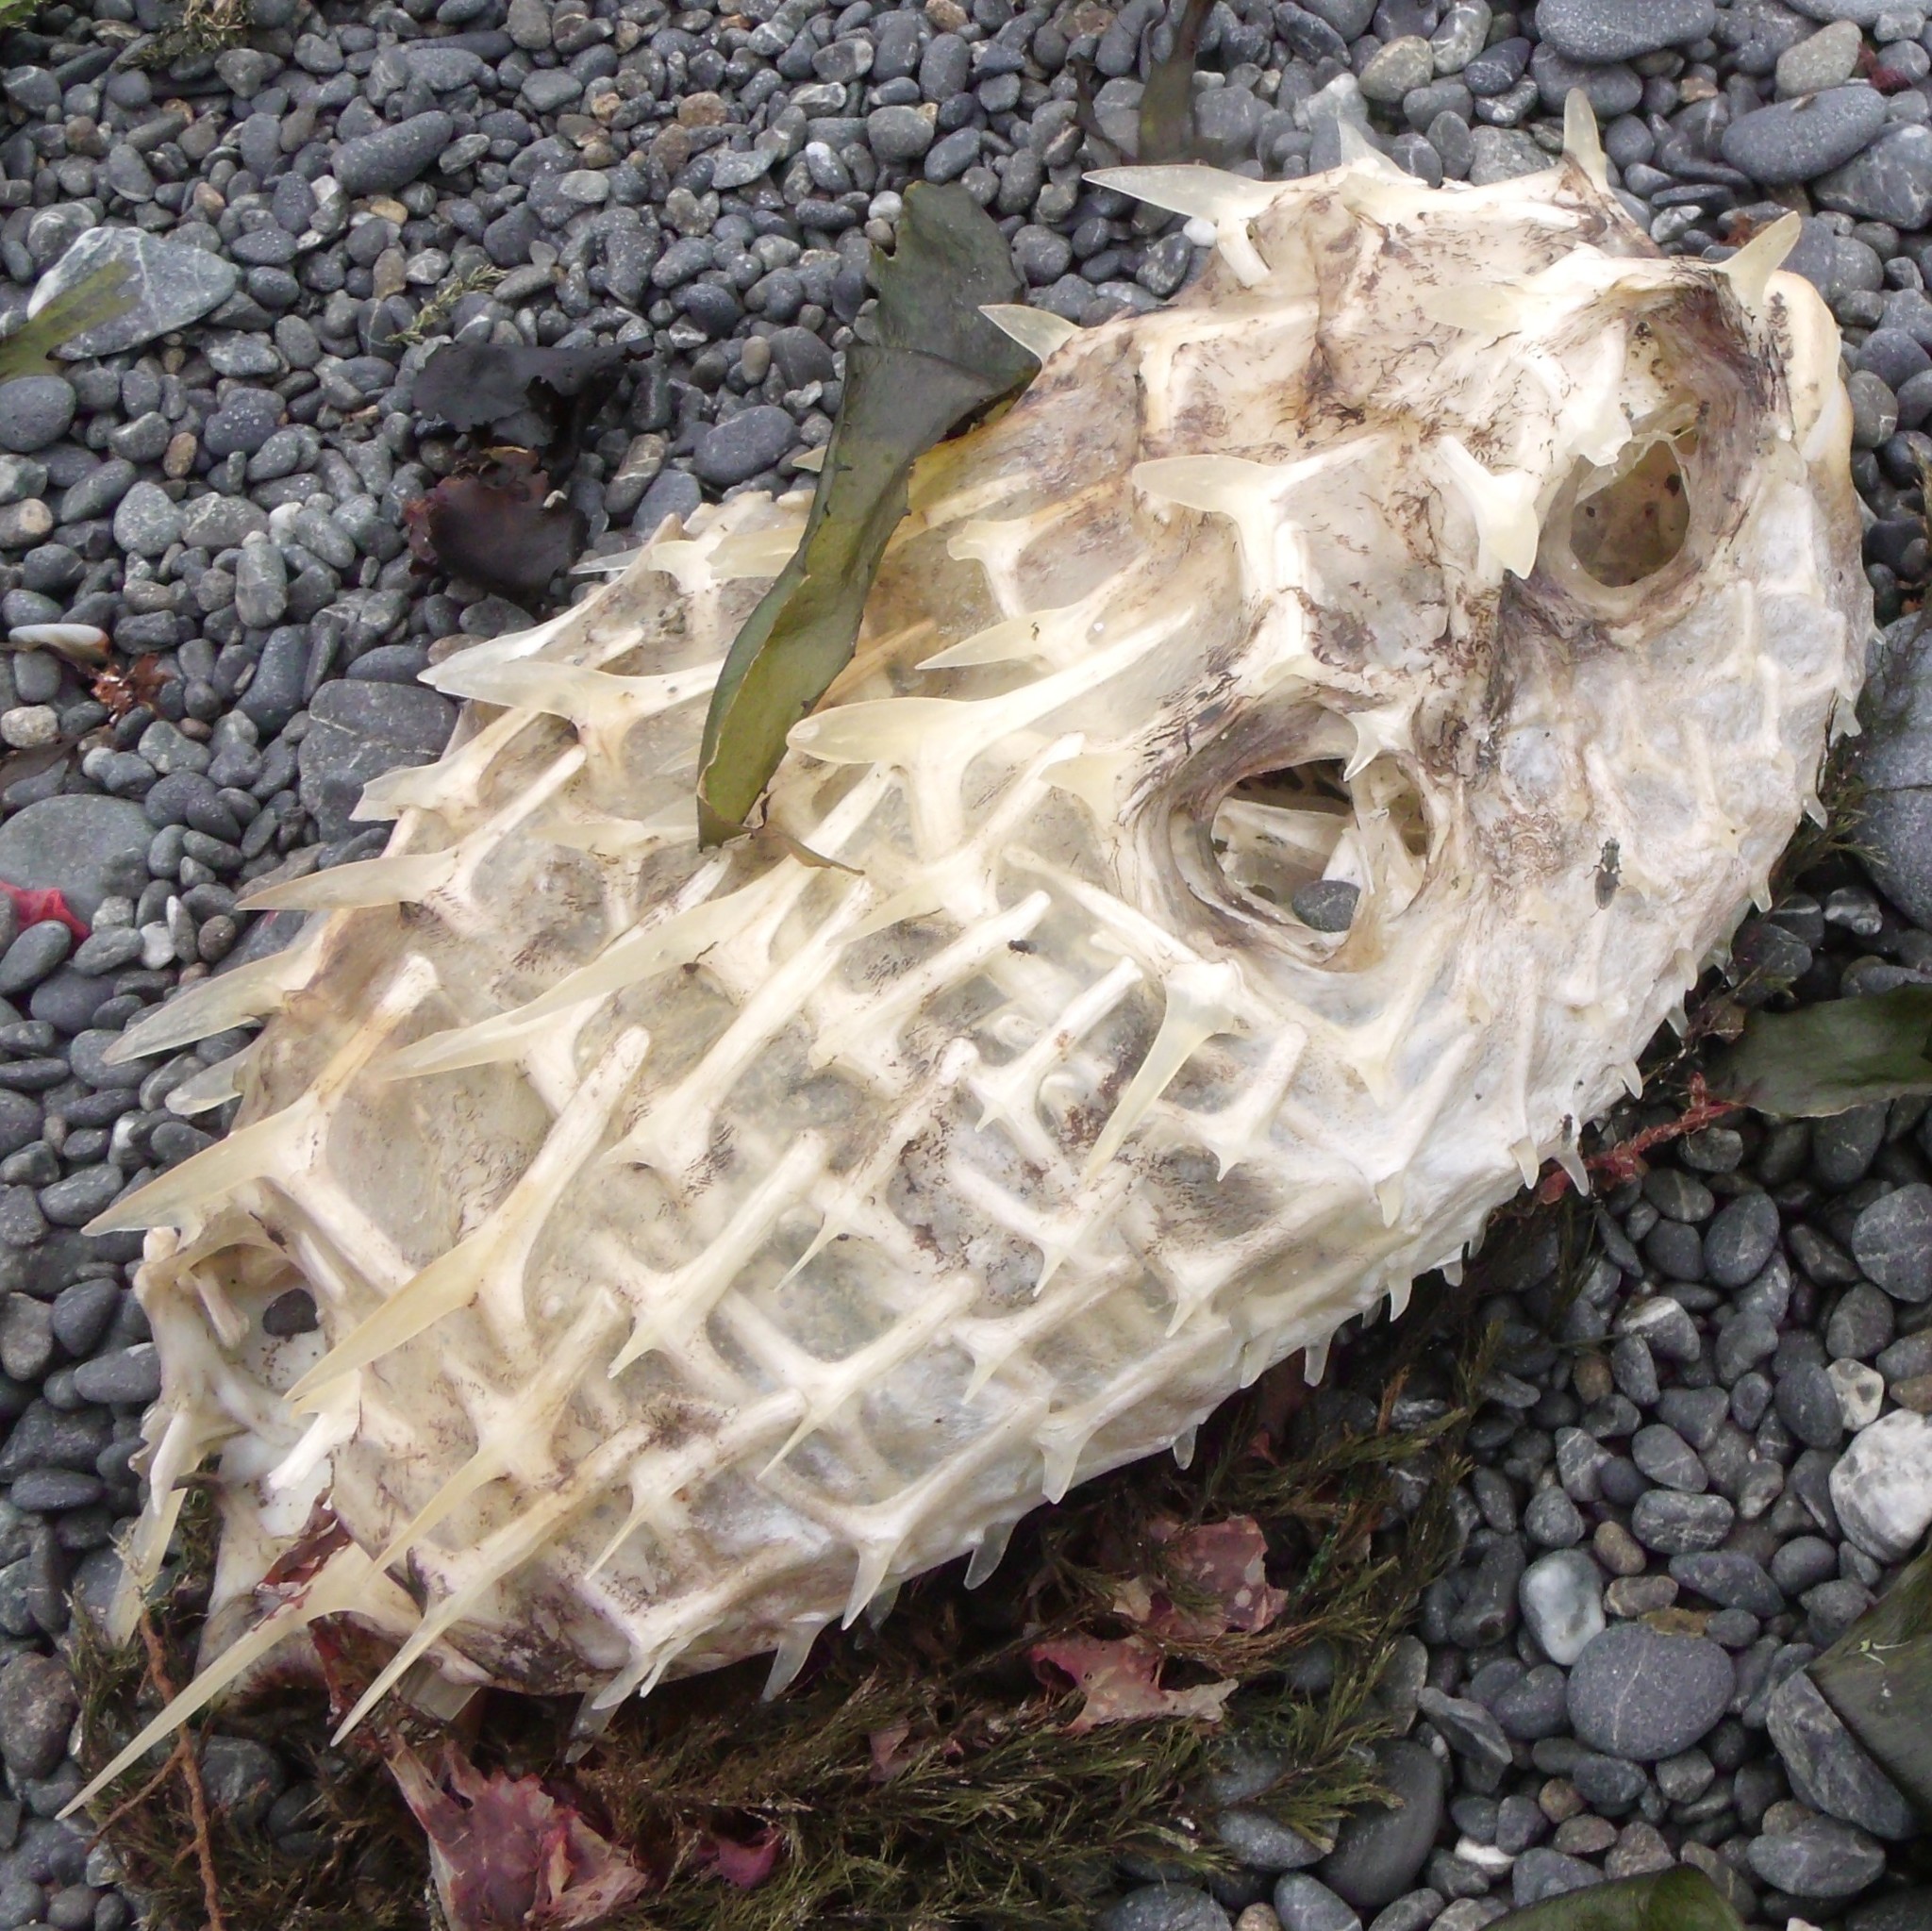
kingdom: Animalia
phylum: Chordata
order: Tetraodontiformes
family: Diodontidae
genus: Allomycterus
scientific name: Allomycterus pilatus
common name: No common name
